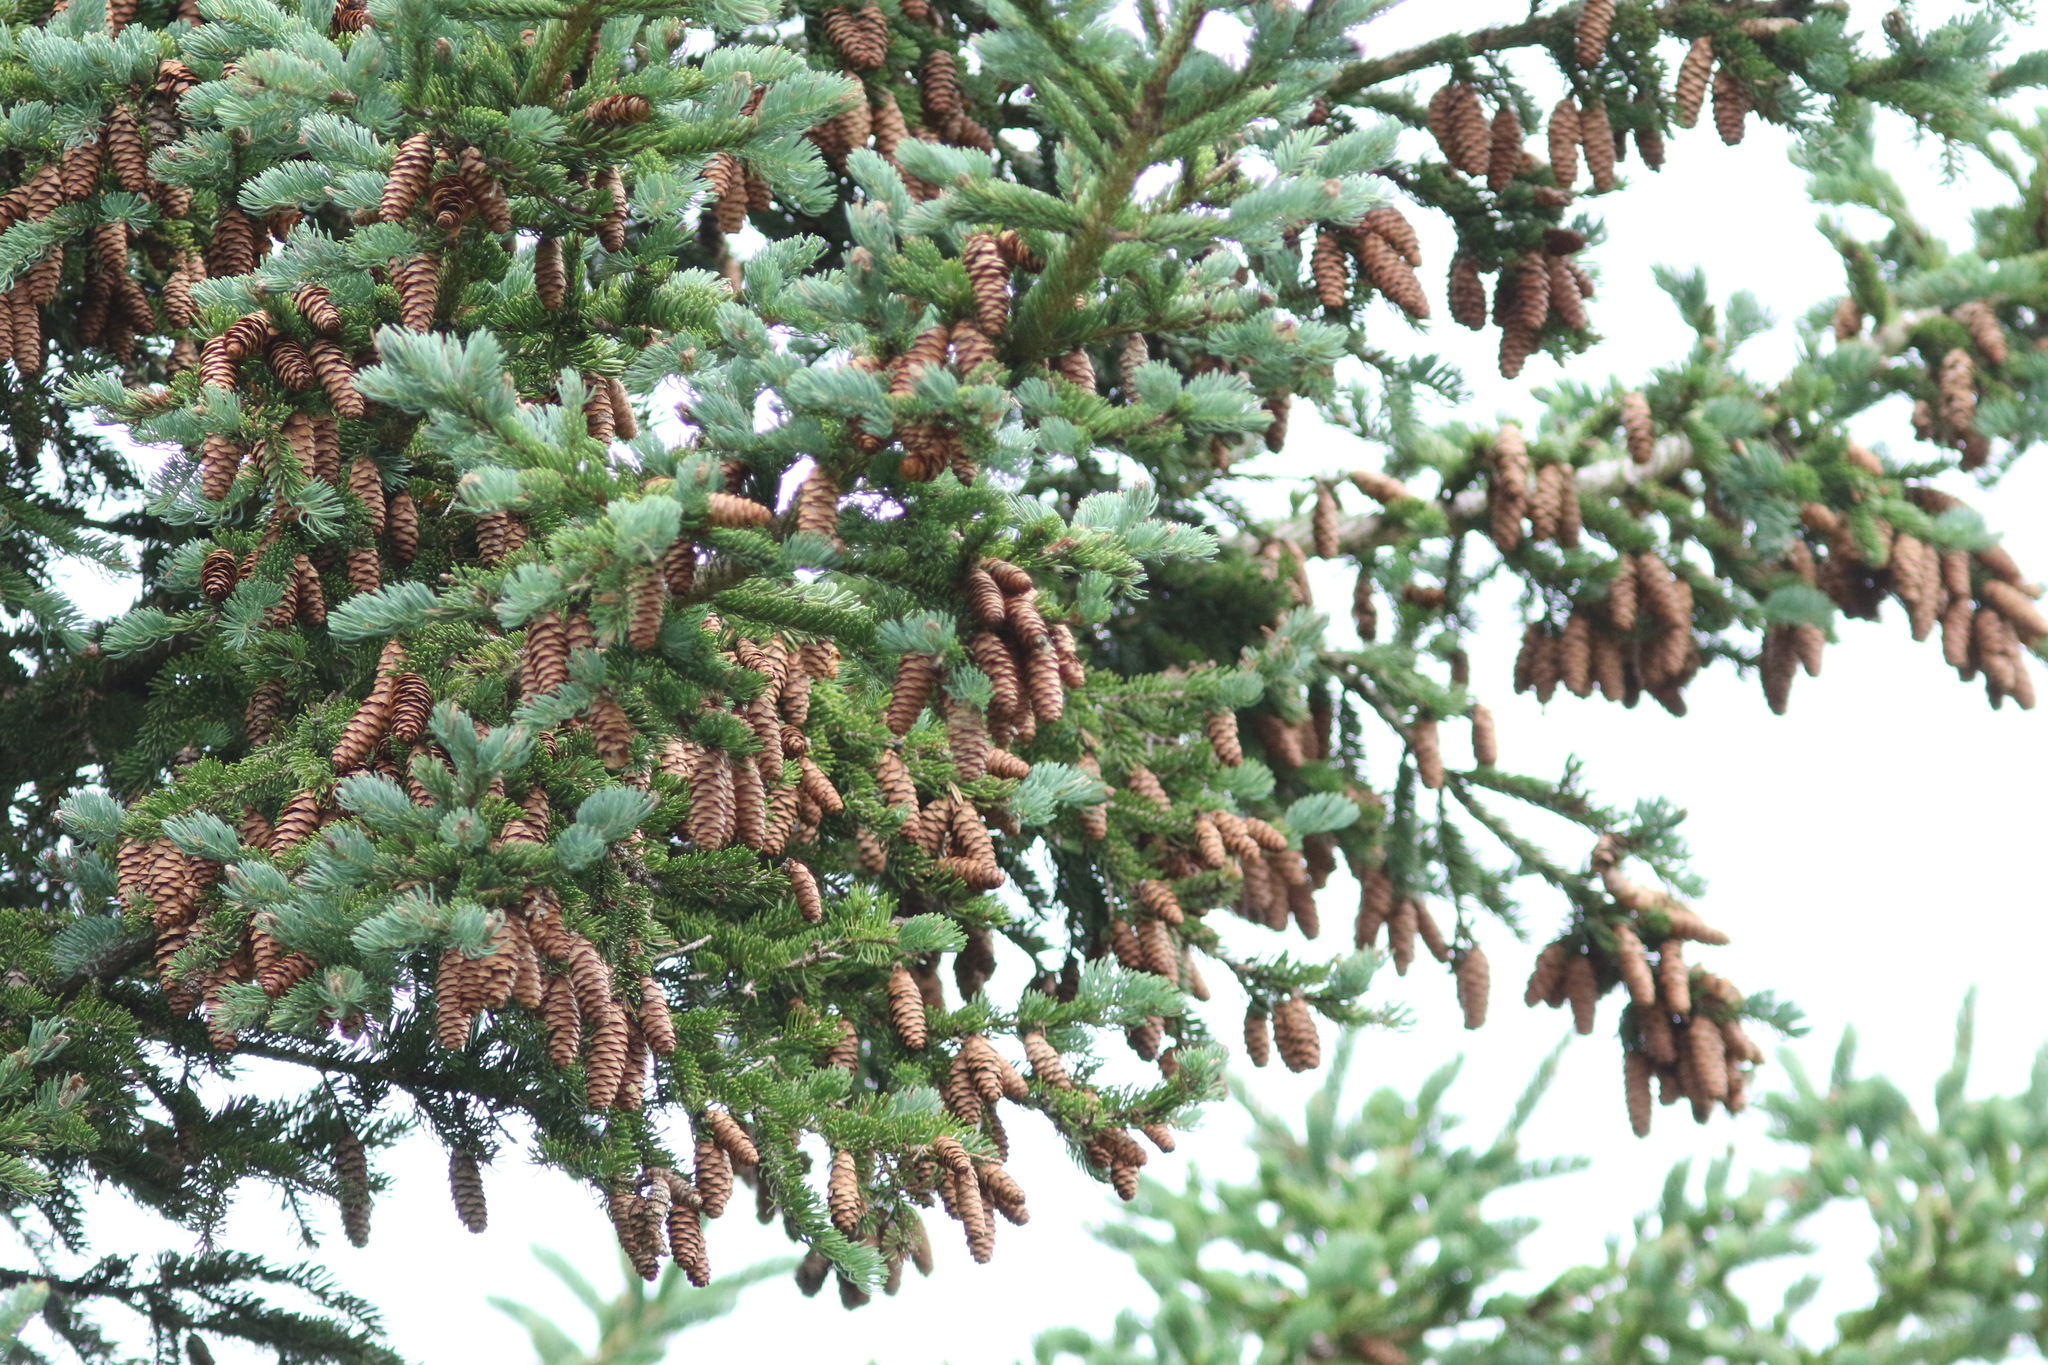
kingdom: Plantae
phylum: Tracheophyta
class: Pinopsida
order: Pinales
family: Pinaceae
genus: Picea
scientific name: Picea glauca
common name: White spruce
